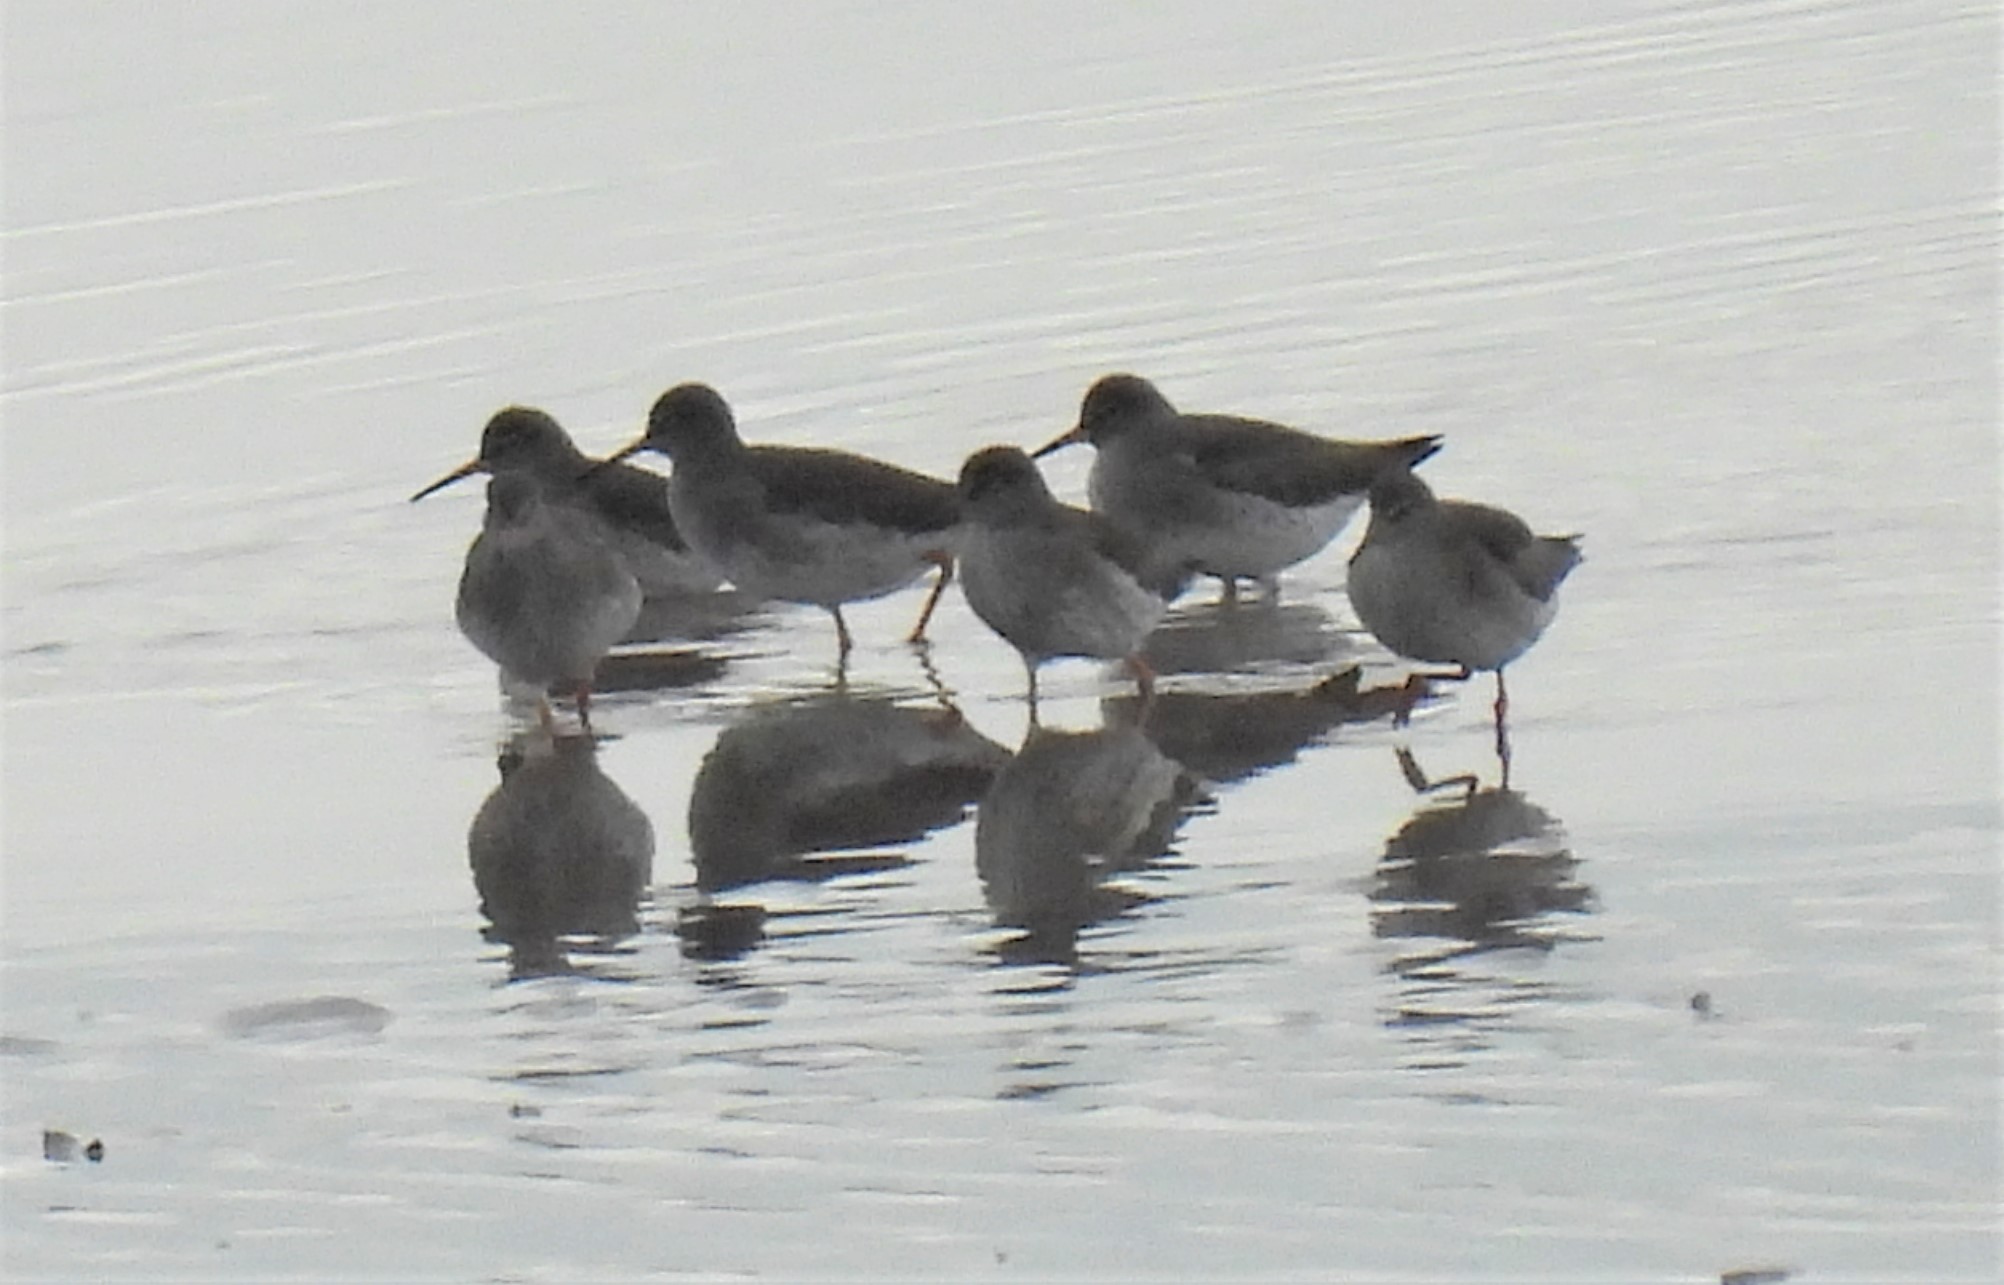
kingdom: Animalia
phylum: Chordata
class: Aves
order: Charadriiformes
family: Scolopacidae
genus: Tringa
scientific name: Tringa totanus
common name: Common redshank
